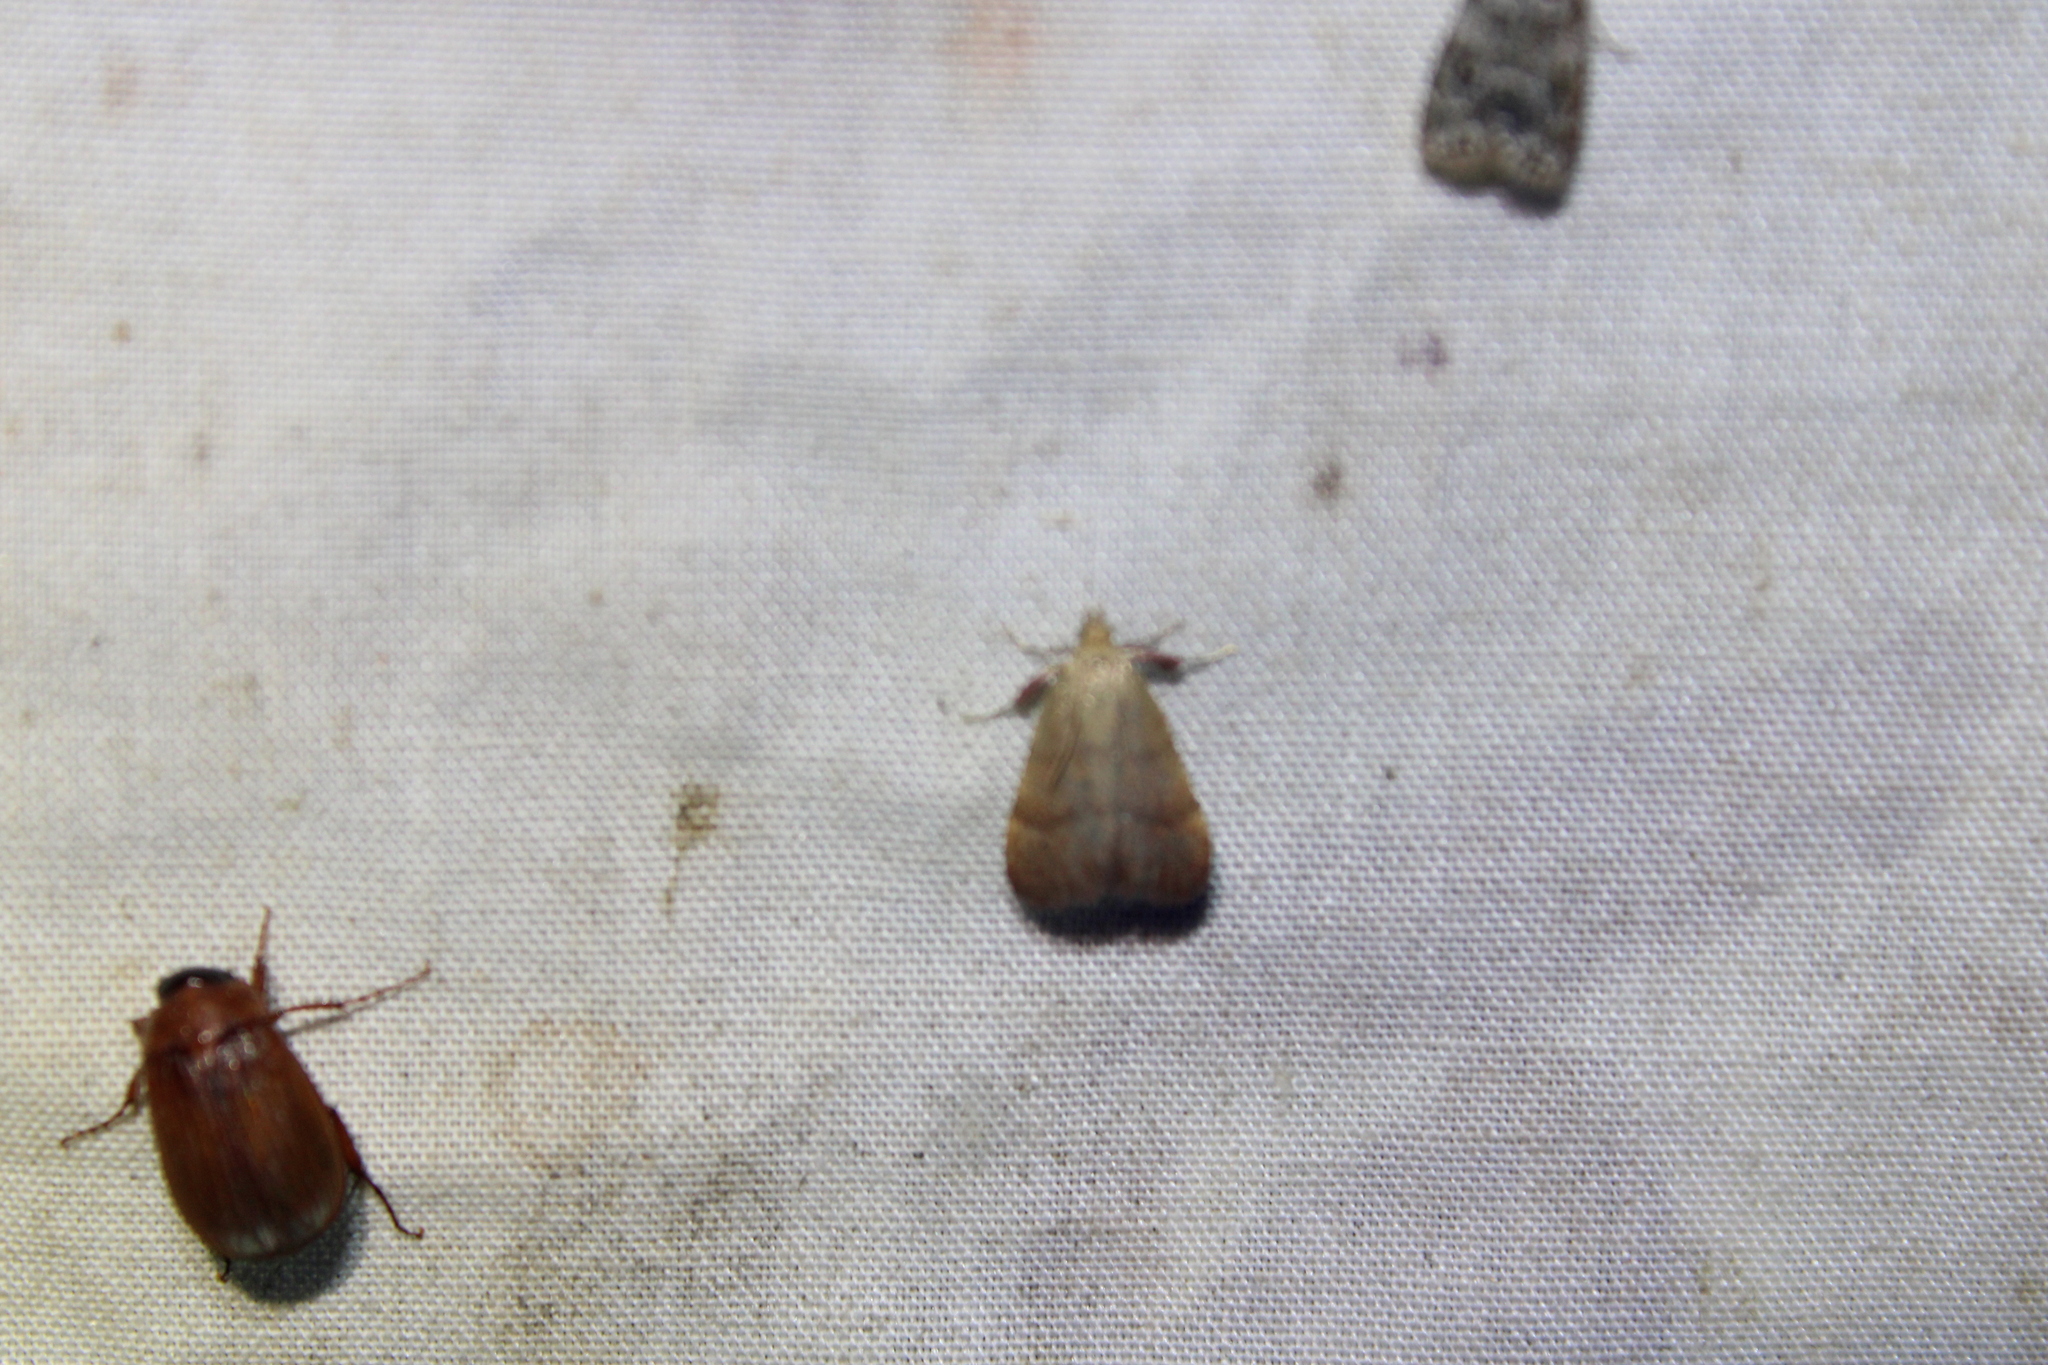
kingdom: Animalia
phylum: Arthropoda
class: Insecta
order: Lepidoptera
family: Pyralidae
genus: Condylolomia
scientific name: Condylolomia participialis
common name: Drab condylolomia moth
